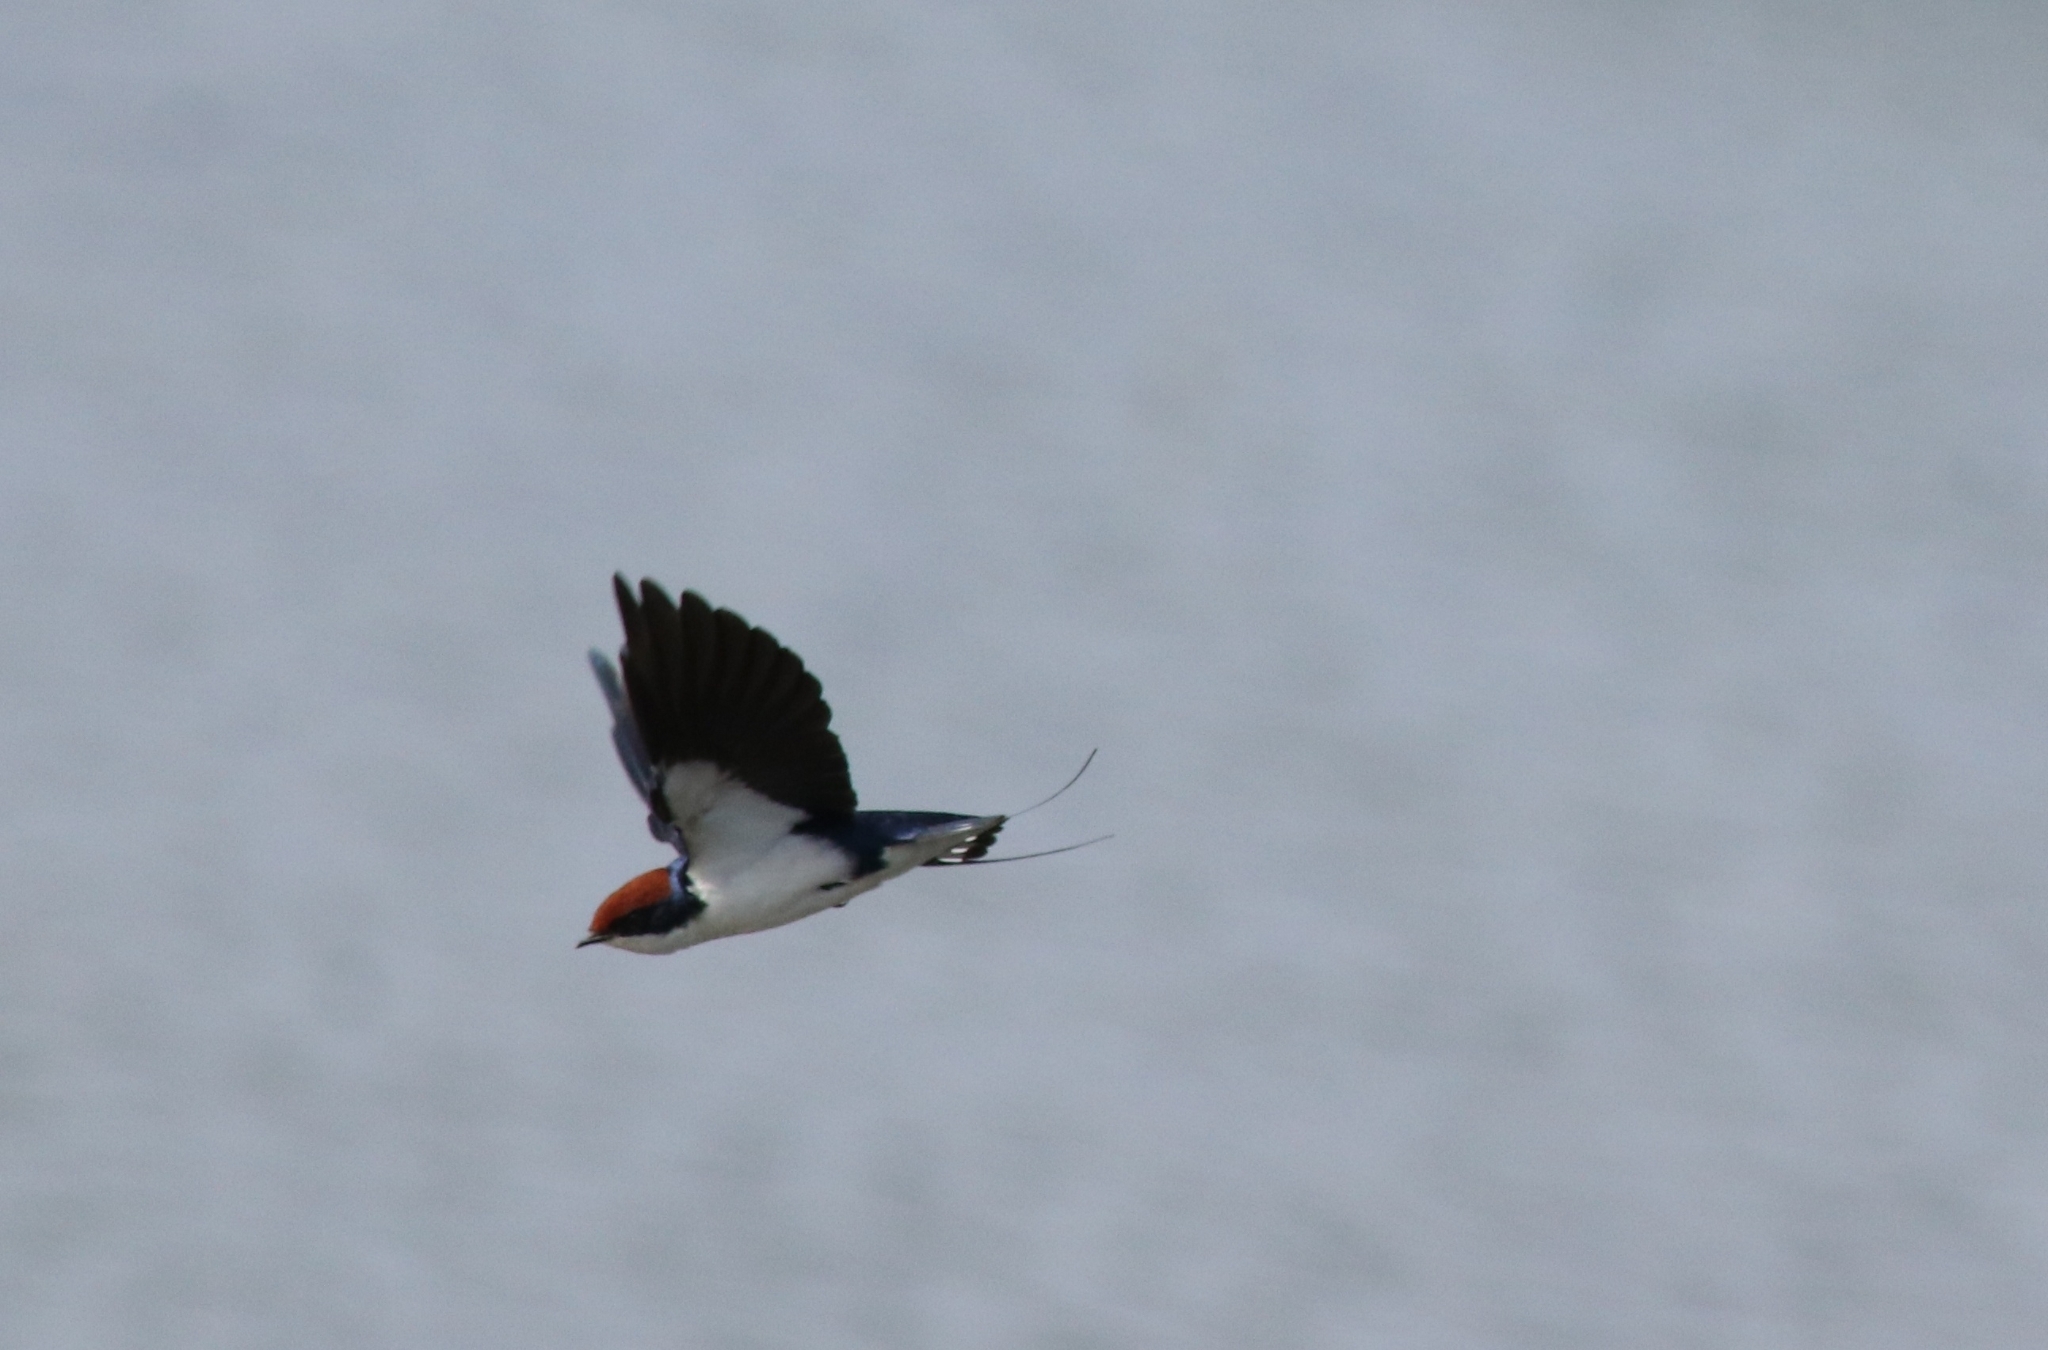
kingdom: Animalia
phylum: Chordata
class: Aves
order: Passeriformes
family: Hirundinidae
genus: Hirundo
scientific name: Hirundo smithii
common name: Wire-tailed swallow
